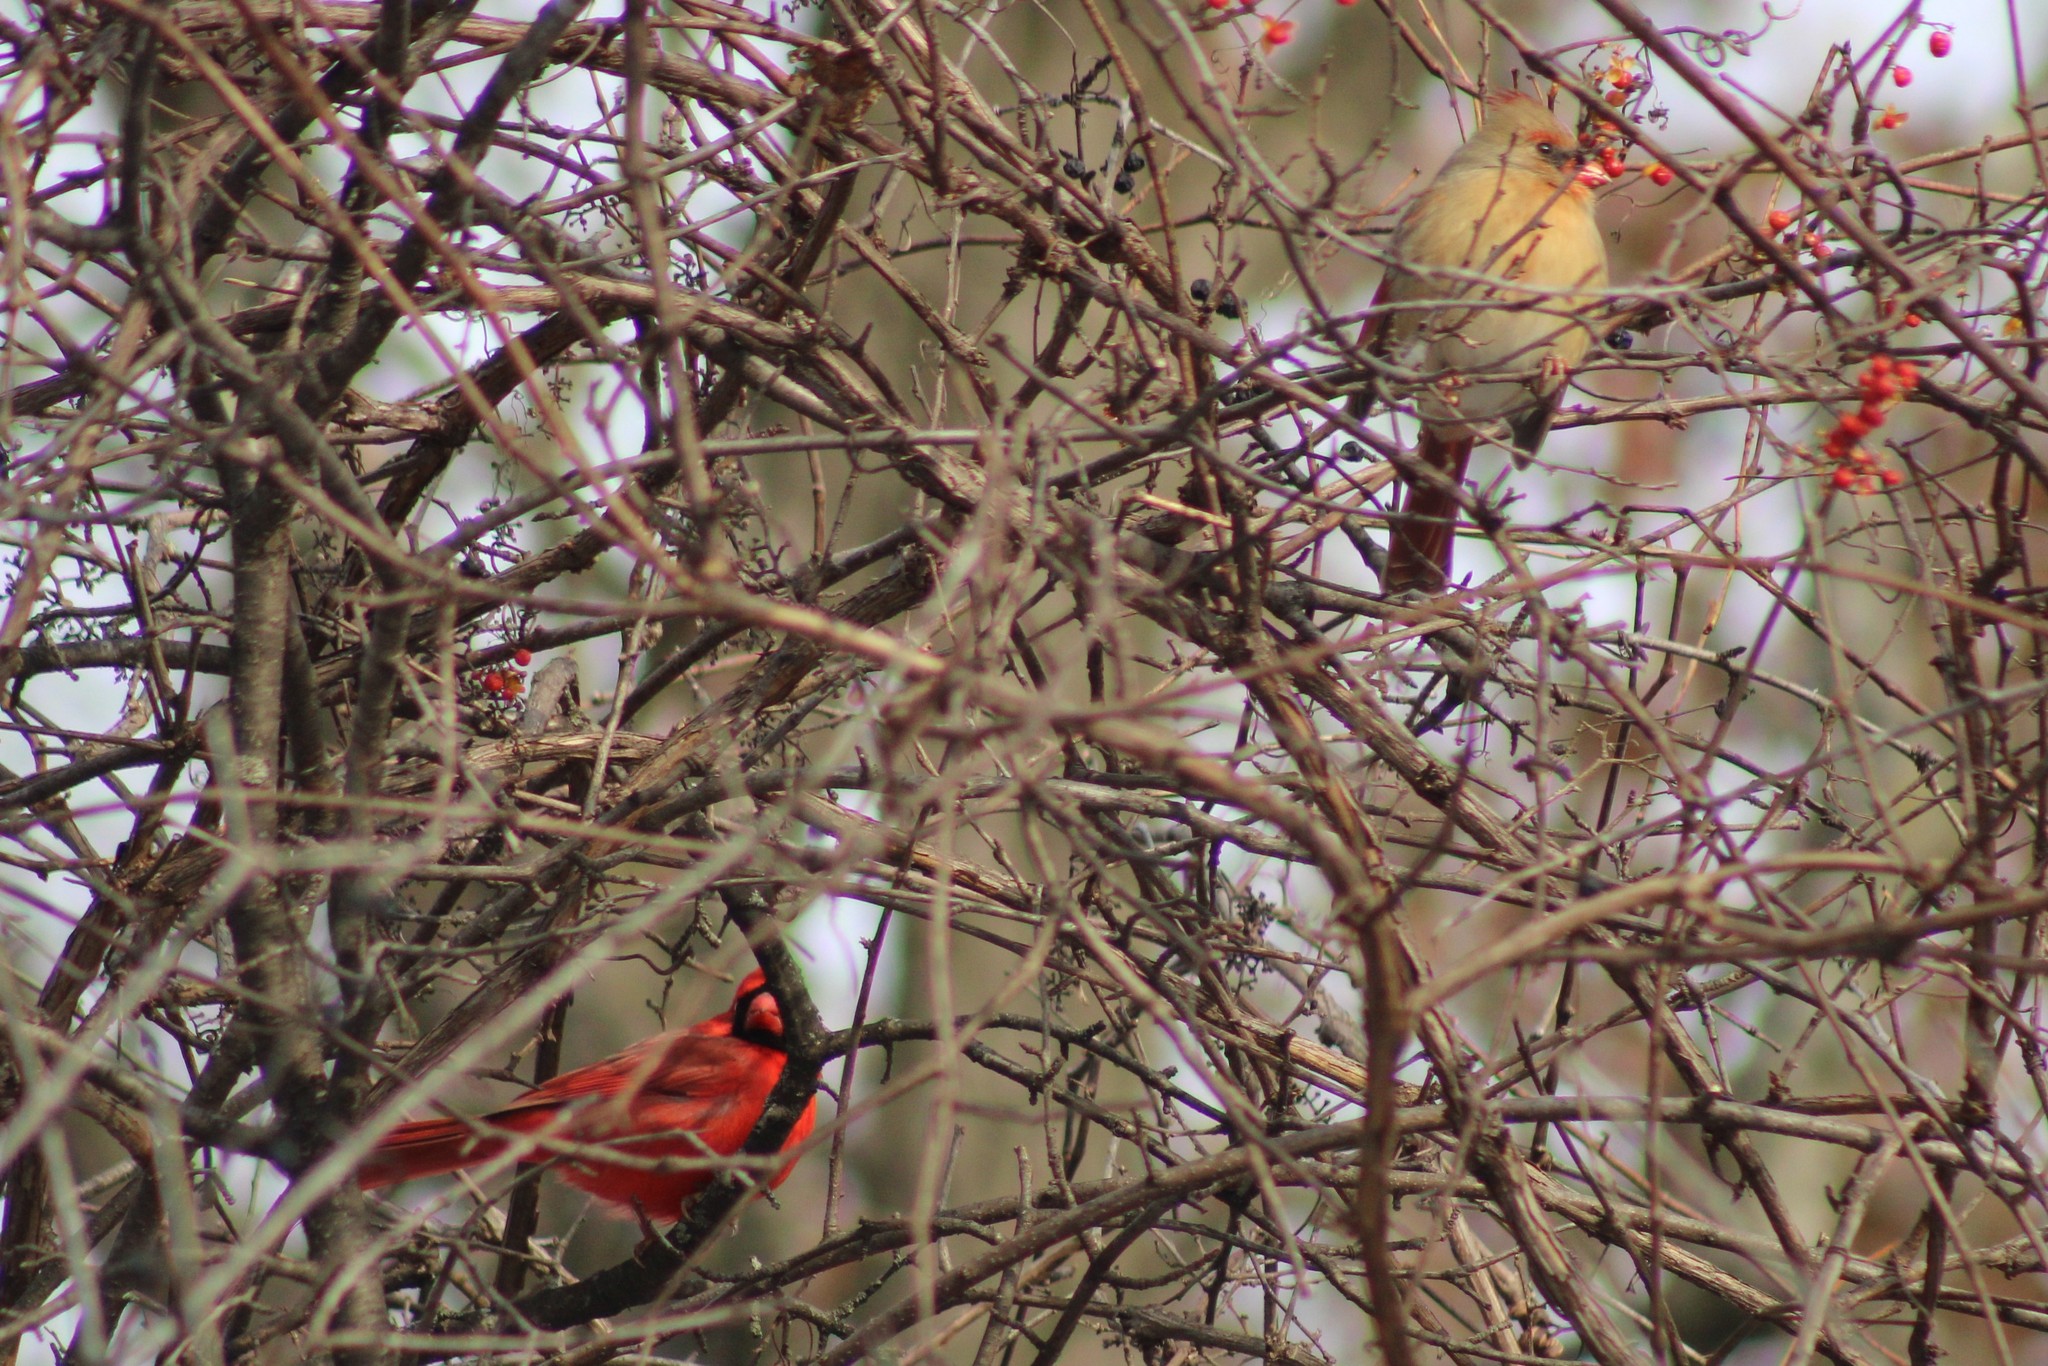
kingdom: Animalia
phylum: Chordata
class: Aves
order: Passeriformes
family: Cardinalidae
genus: Cardinalis
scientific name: Cardinalis cardinalis
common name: Northern cardinal
